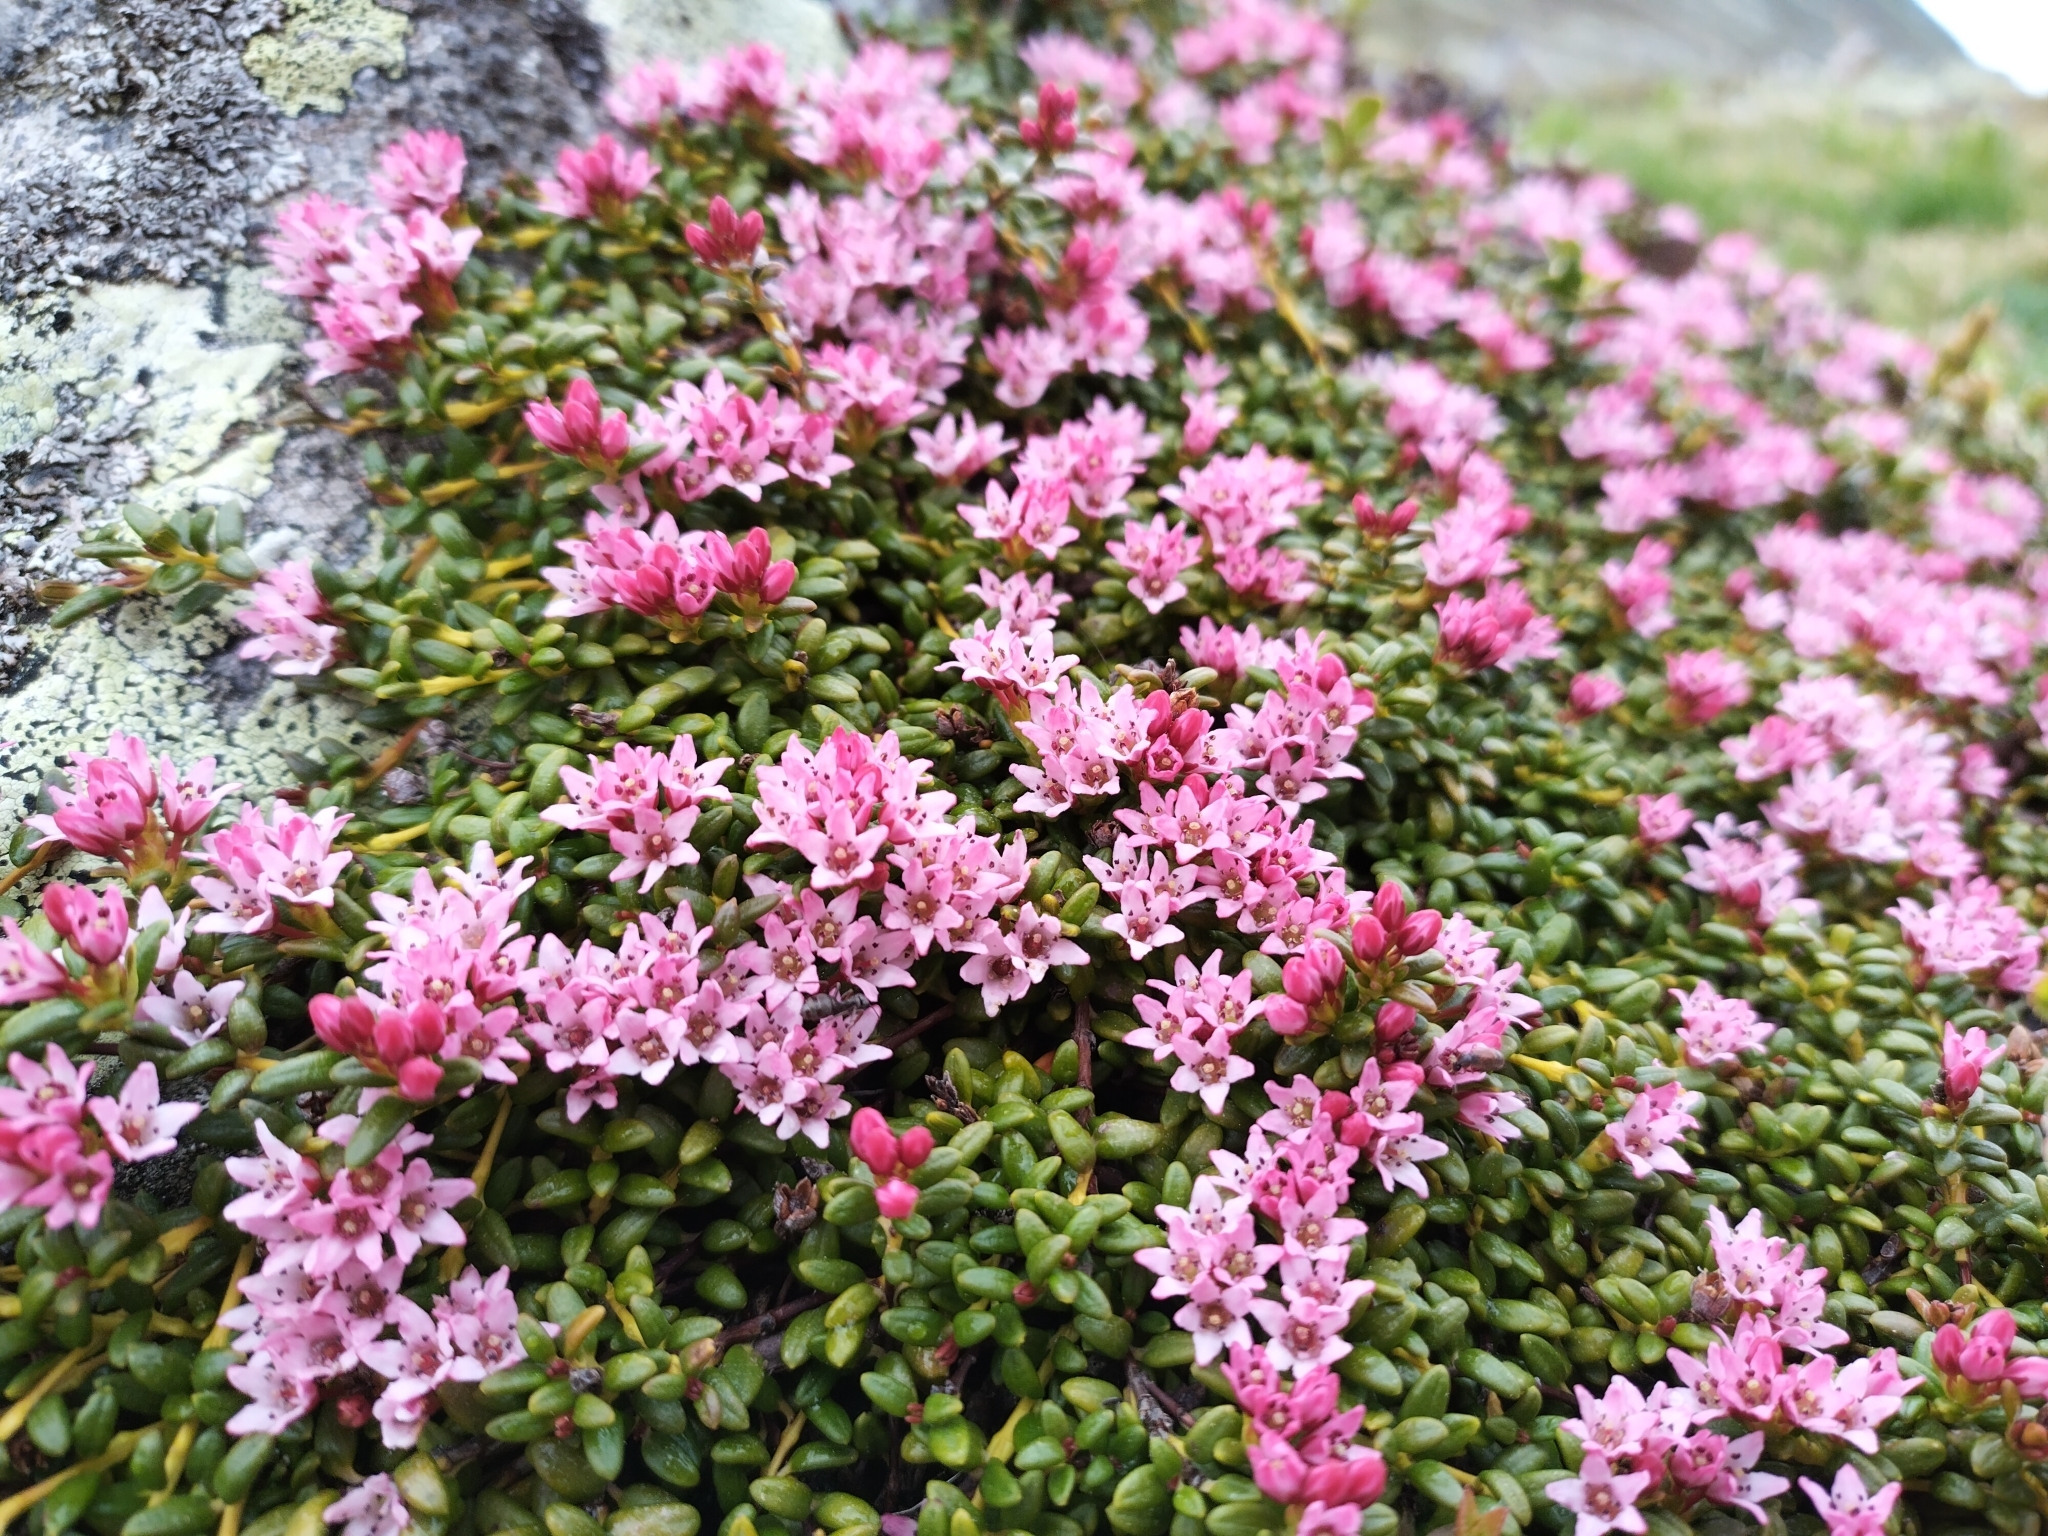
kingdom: Plantae
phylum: Tracheophyta
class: Magnoliopsida
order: Ericales
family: Ericaceae
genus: Kalmia
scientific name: Kalmia procumbens
